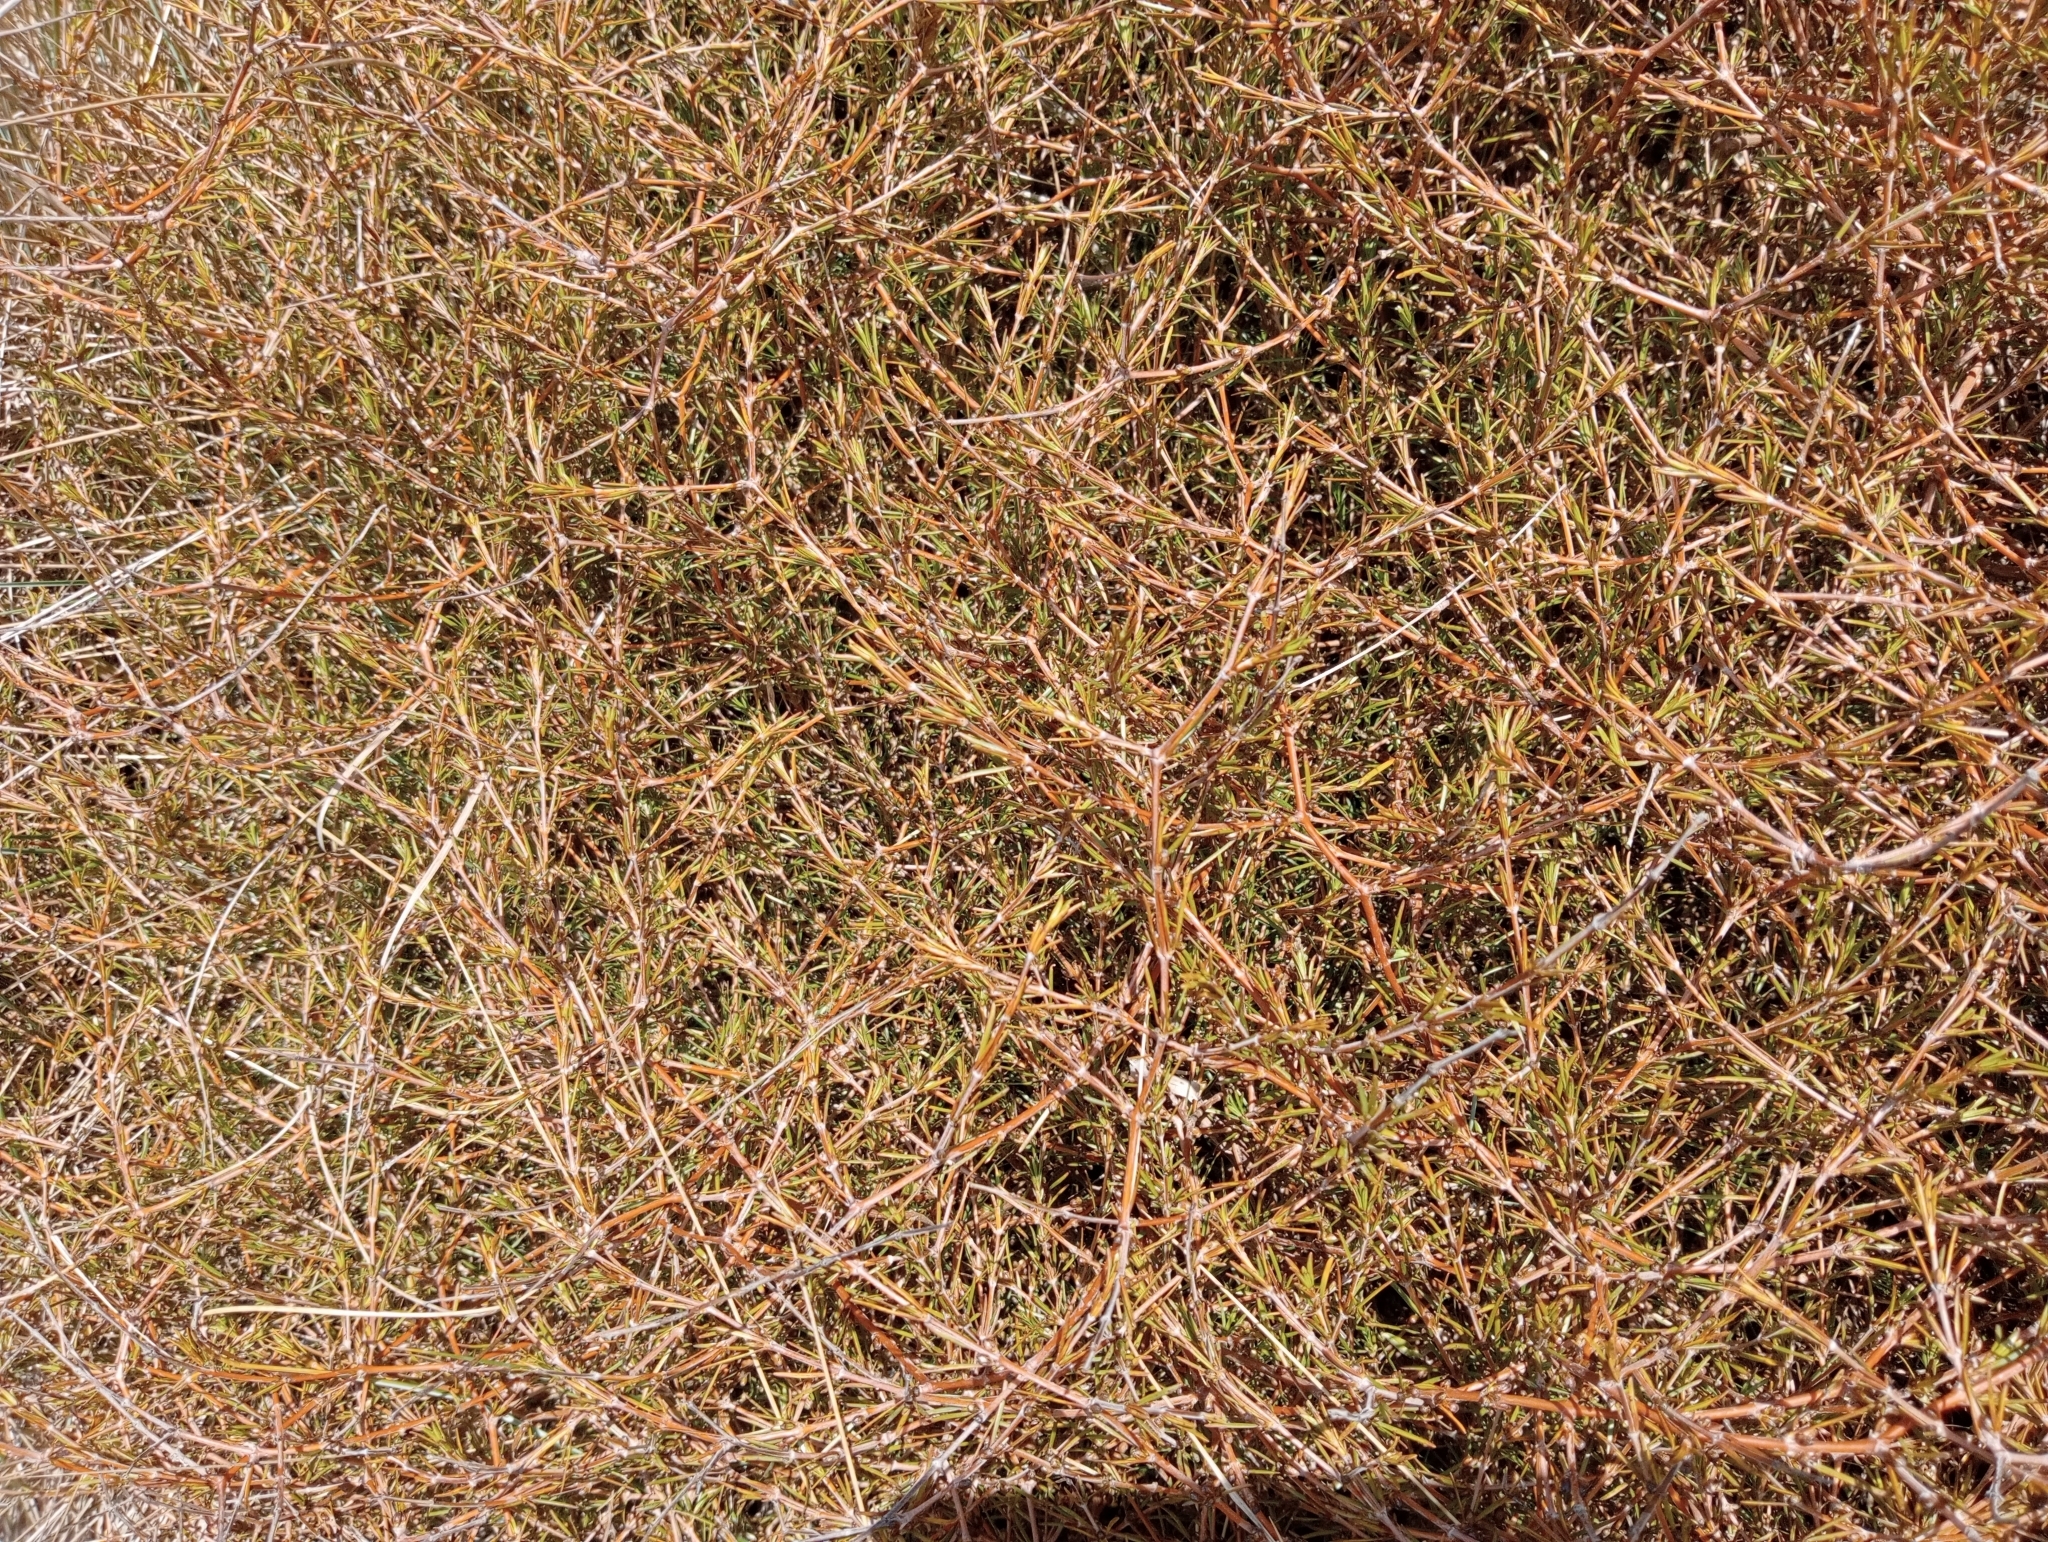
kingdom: Plantae
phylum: Tracheophyta
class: Magnoliopsida
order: Gentianales
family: Rubiaceae
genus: Coprosma
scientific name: Coprosma acerosa
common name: Sand coprosma
